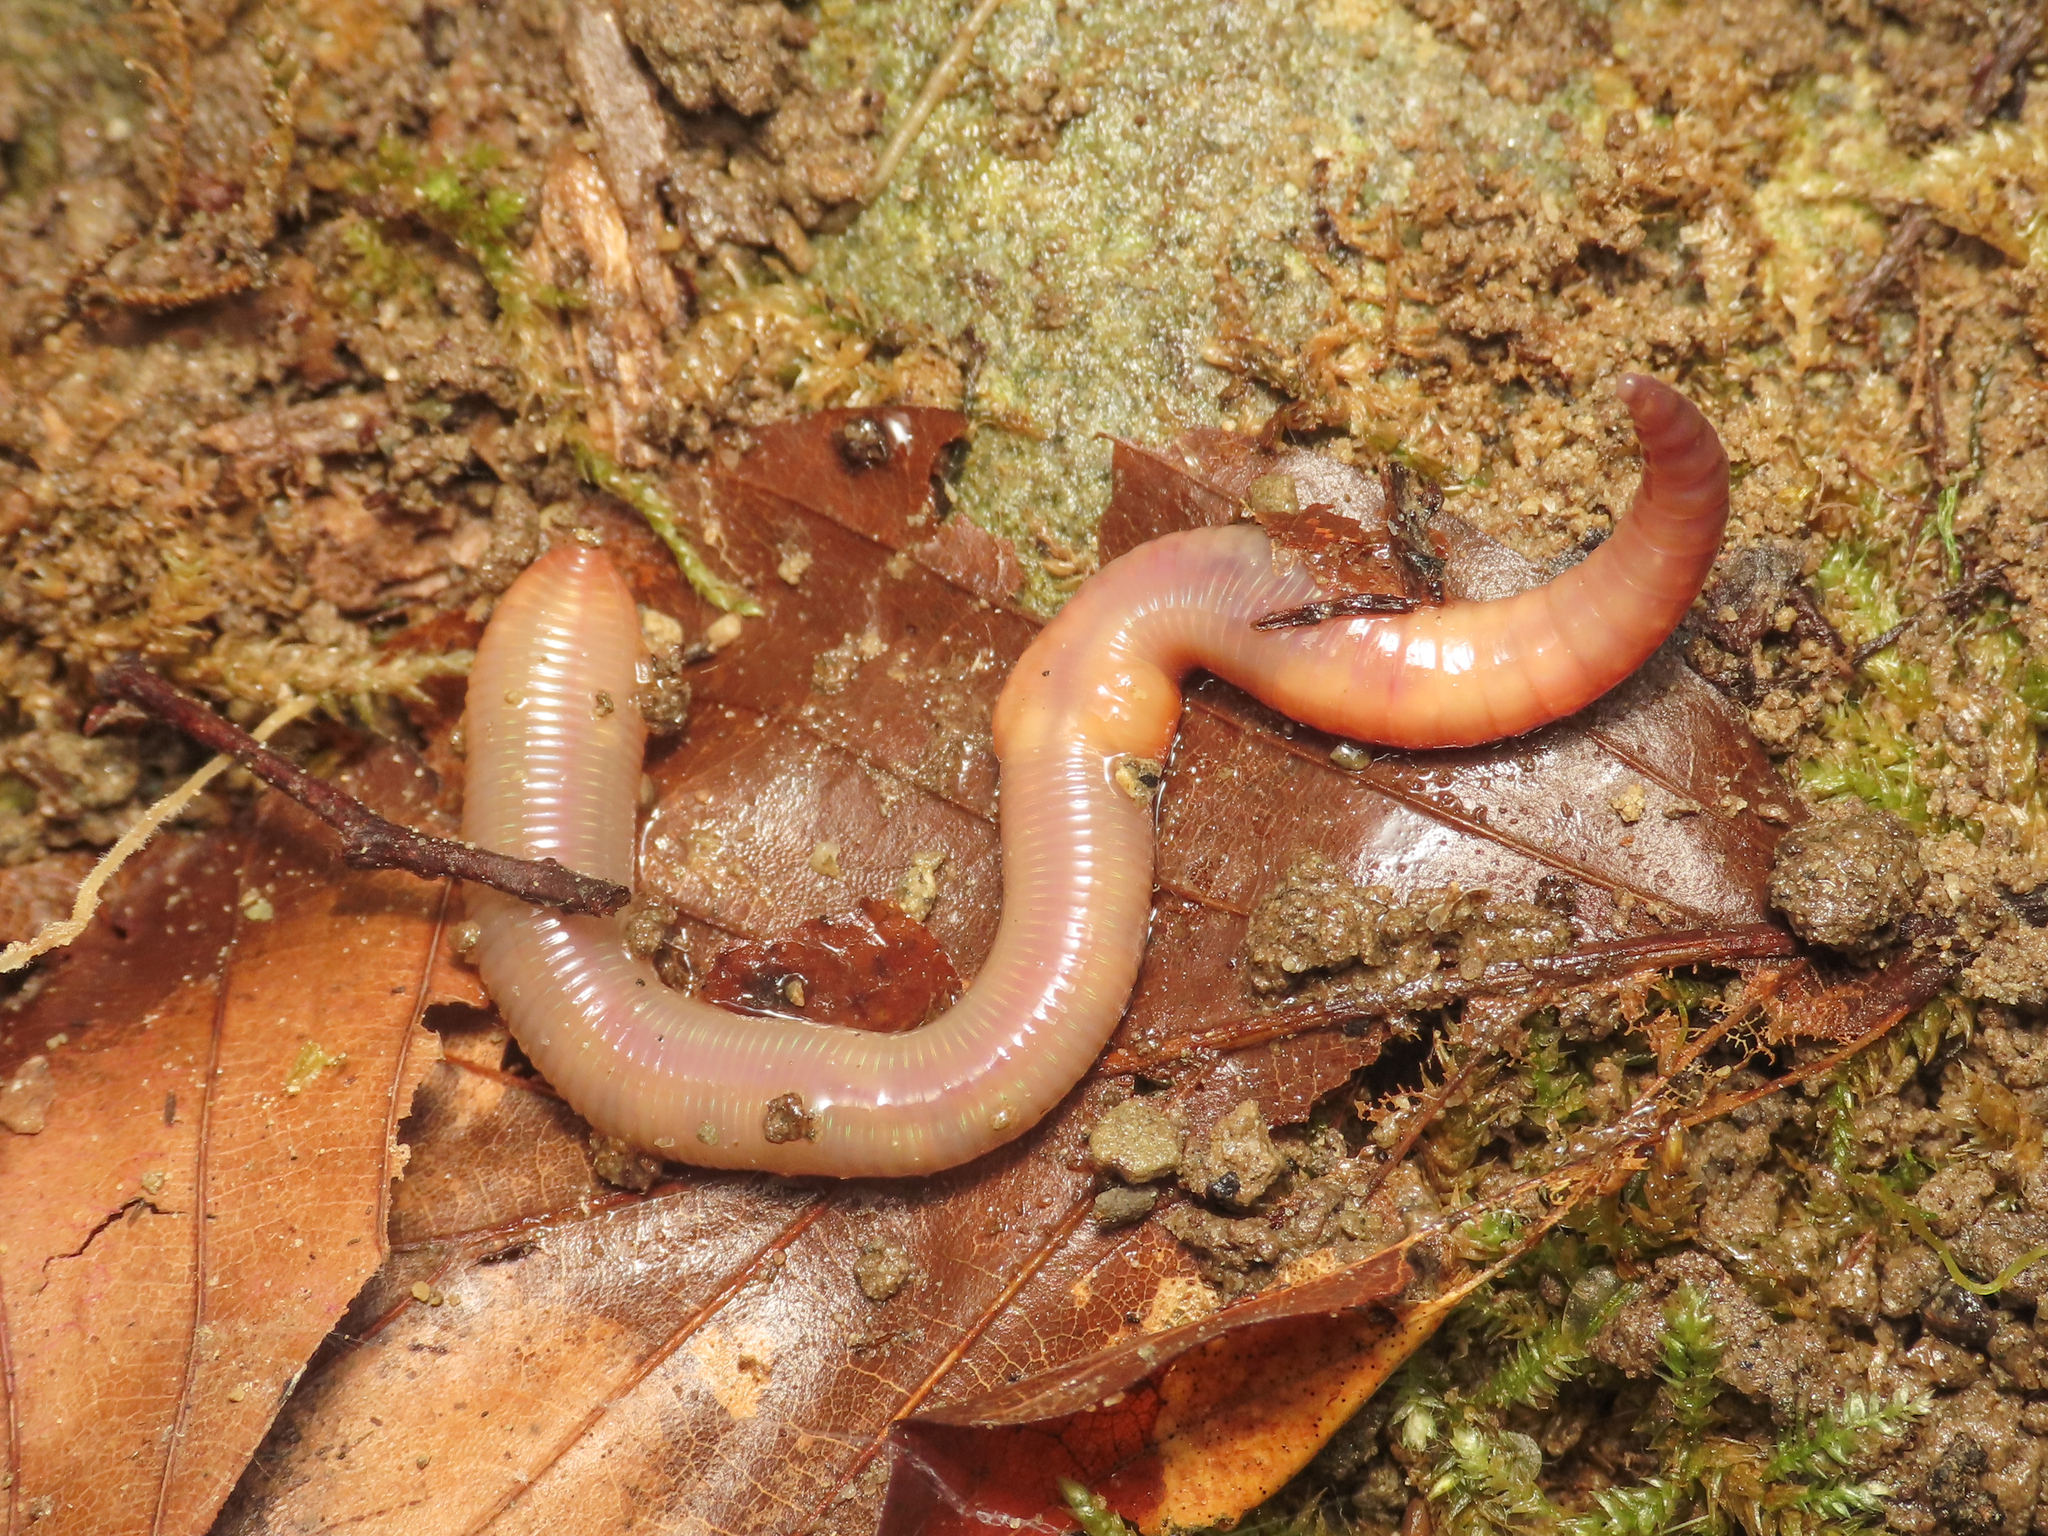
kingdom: Animalia
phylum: Annelida
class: Clitellata
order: Crassiclitellata
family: Lumbricidae
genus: Lumbricus
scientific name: Lumbricus castaneus
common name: Chestnut worm
